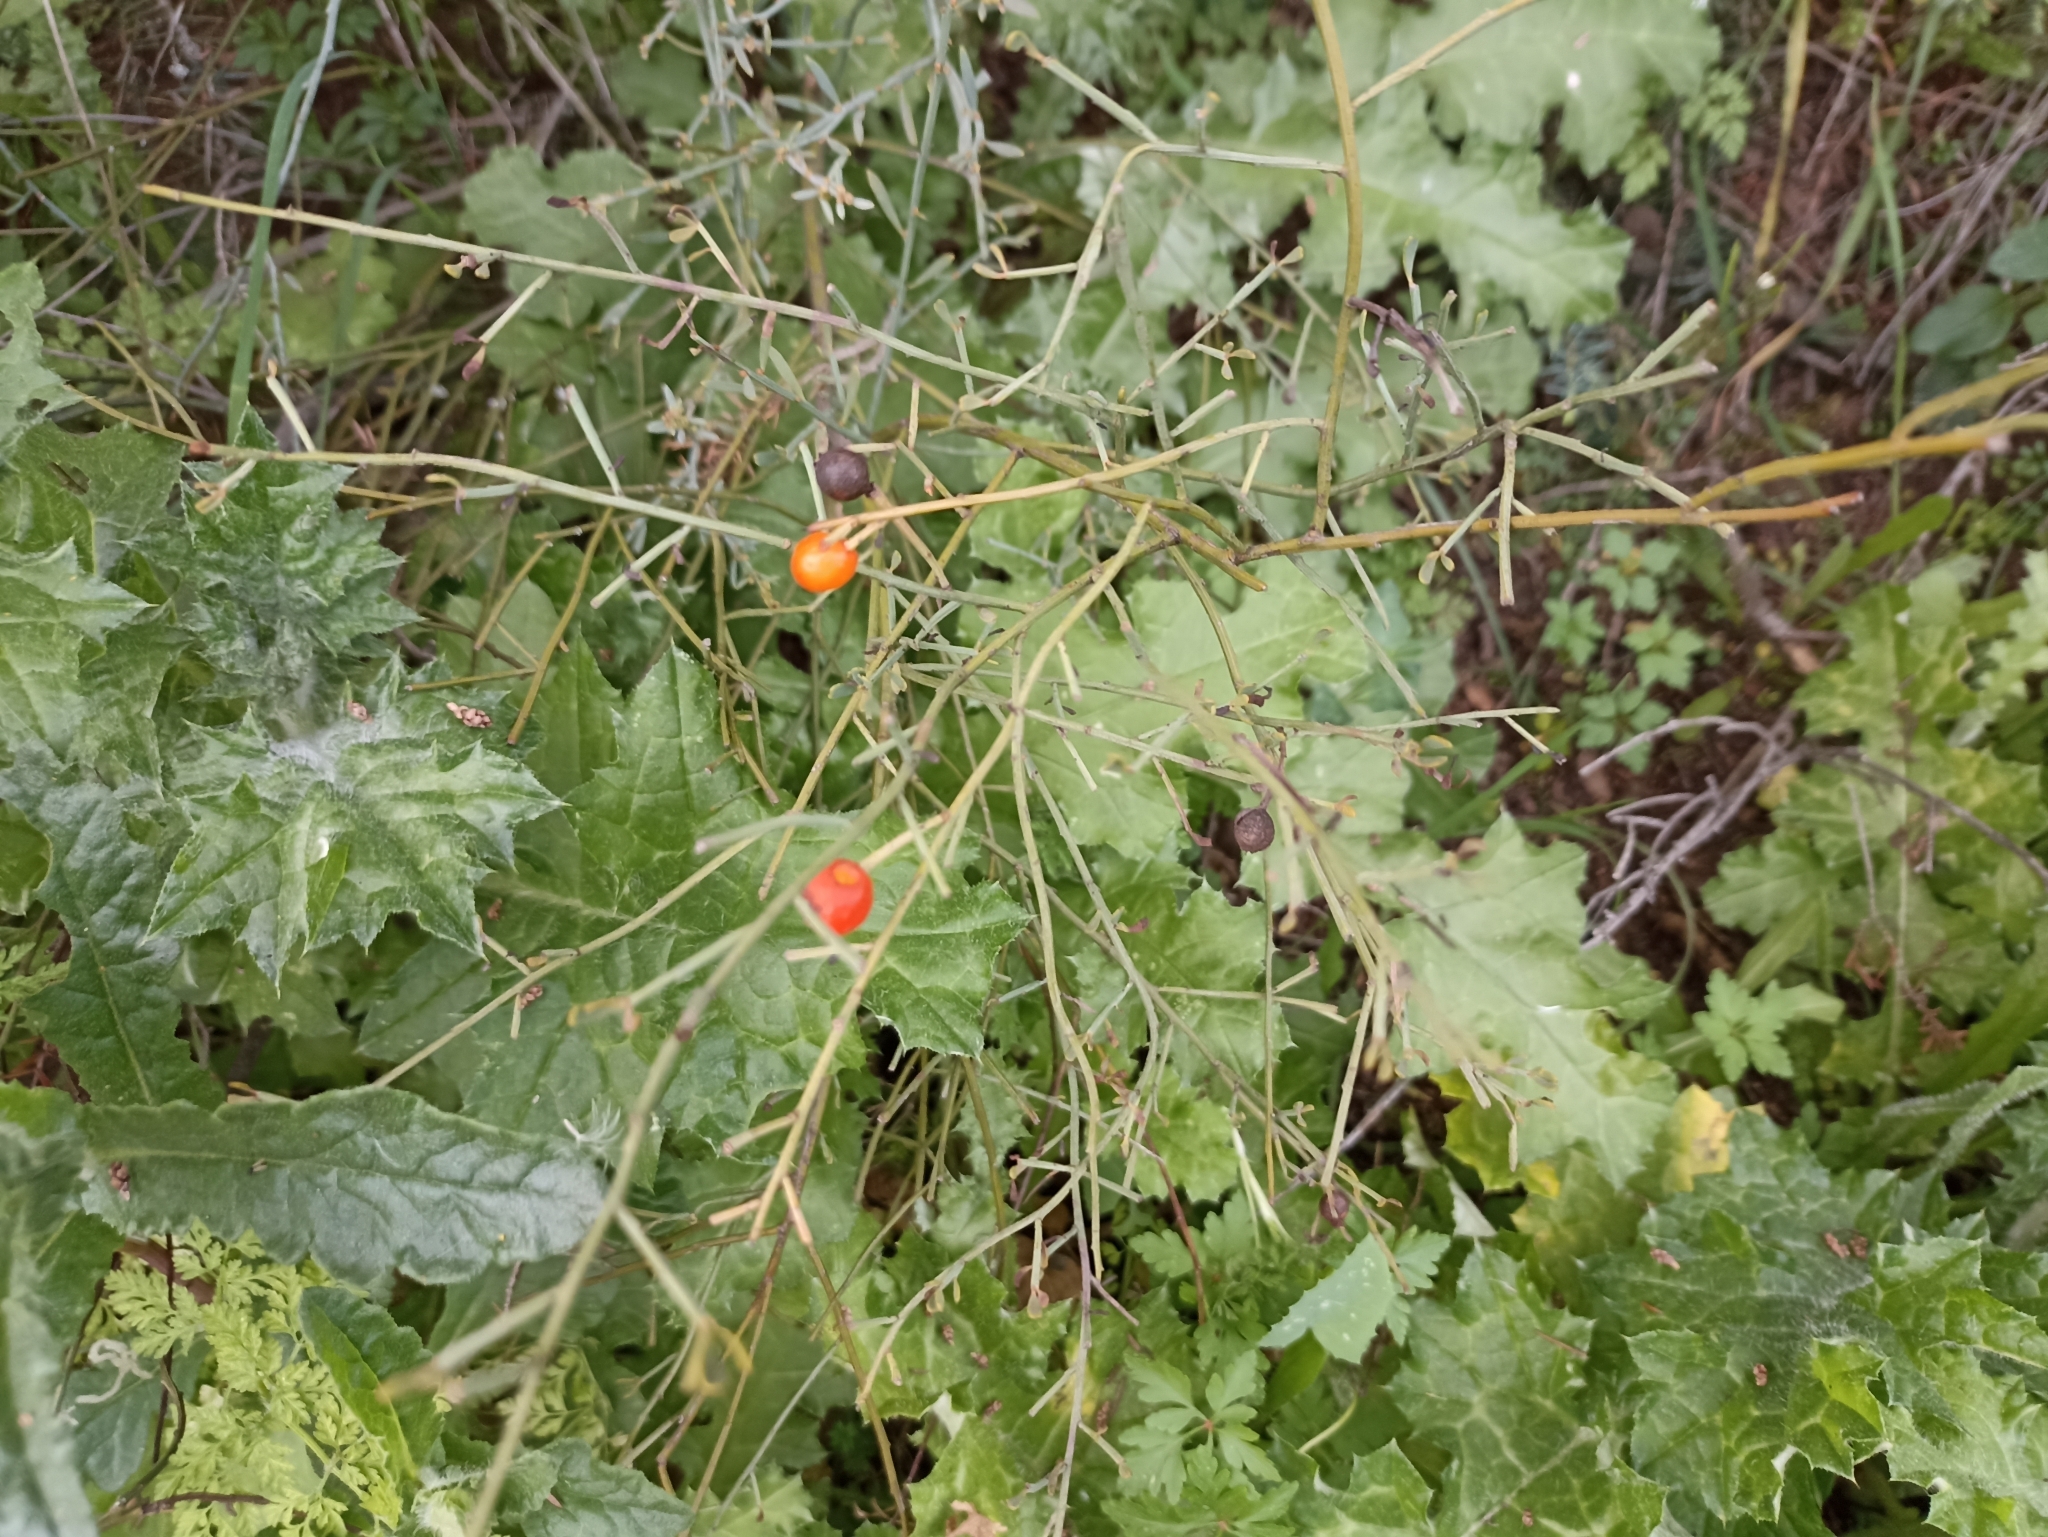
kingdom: Plantae
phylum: Tracheophyta
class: Magnoliopsida
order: Santalales
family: Santalaceae
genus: Osyris
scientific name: Osyris alba
